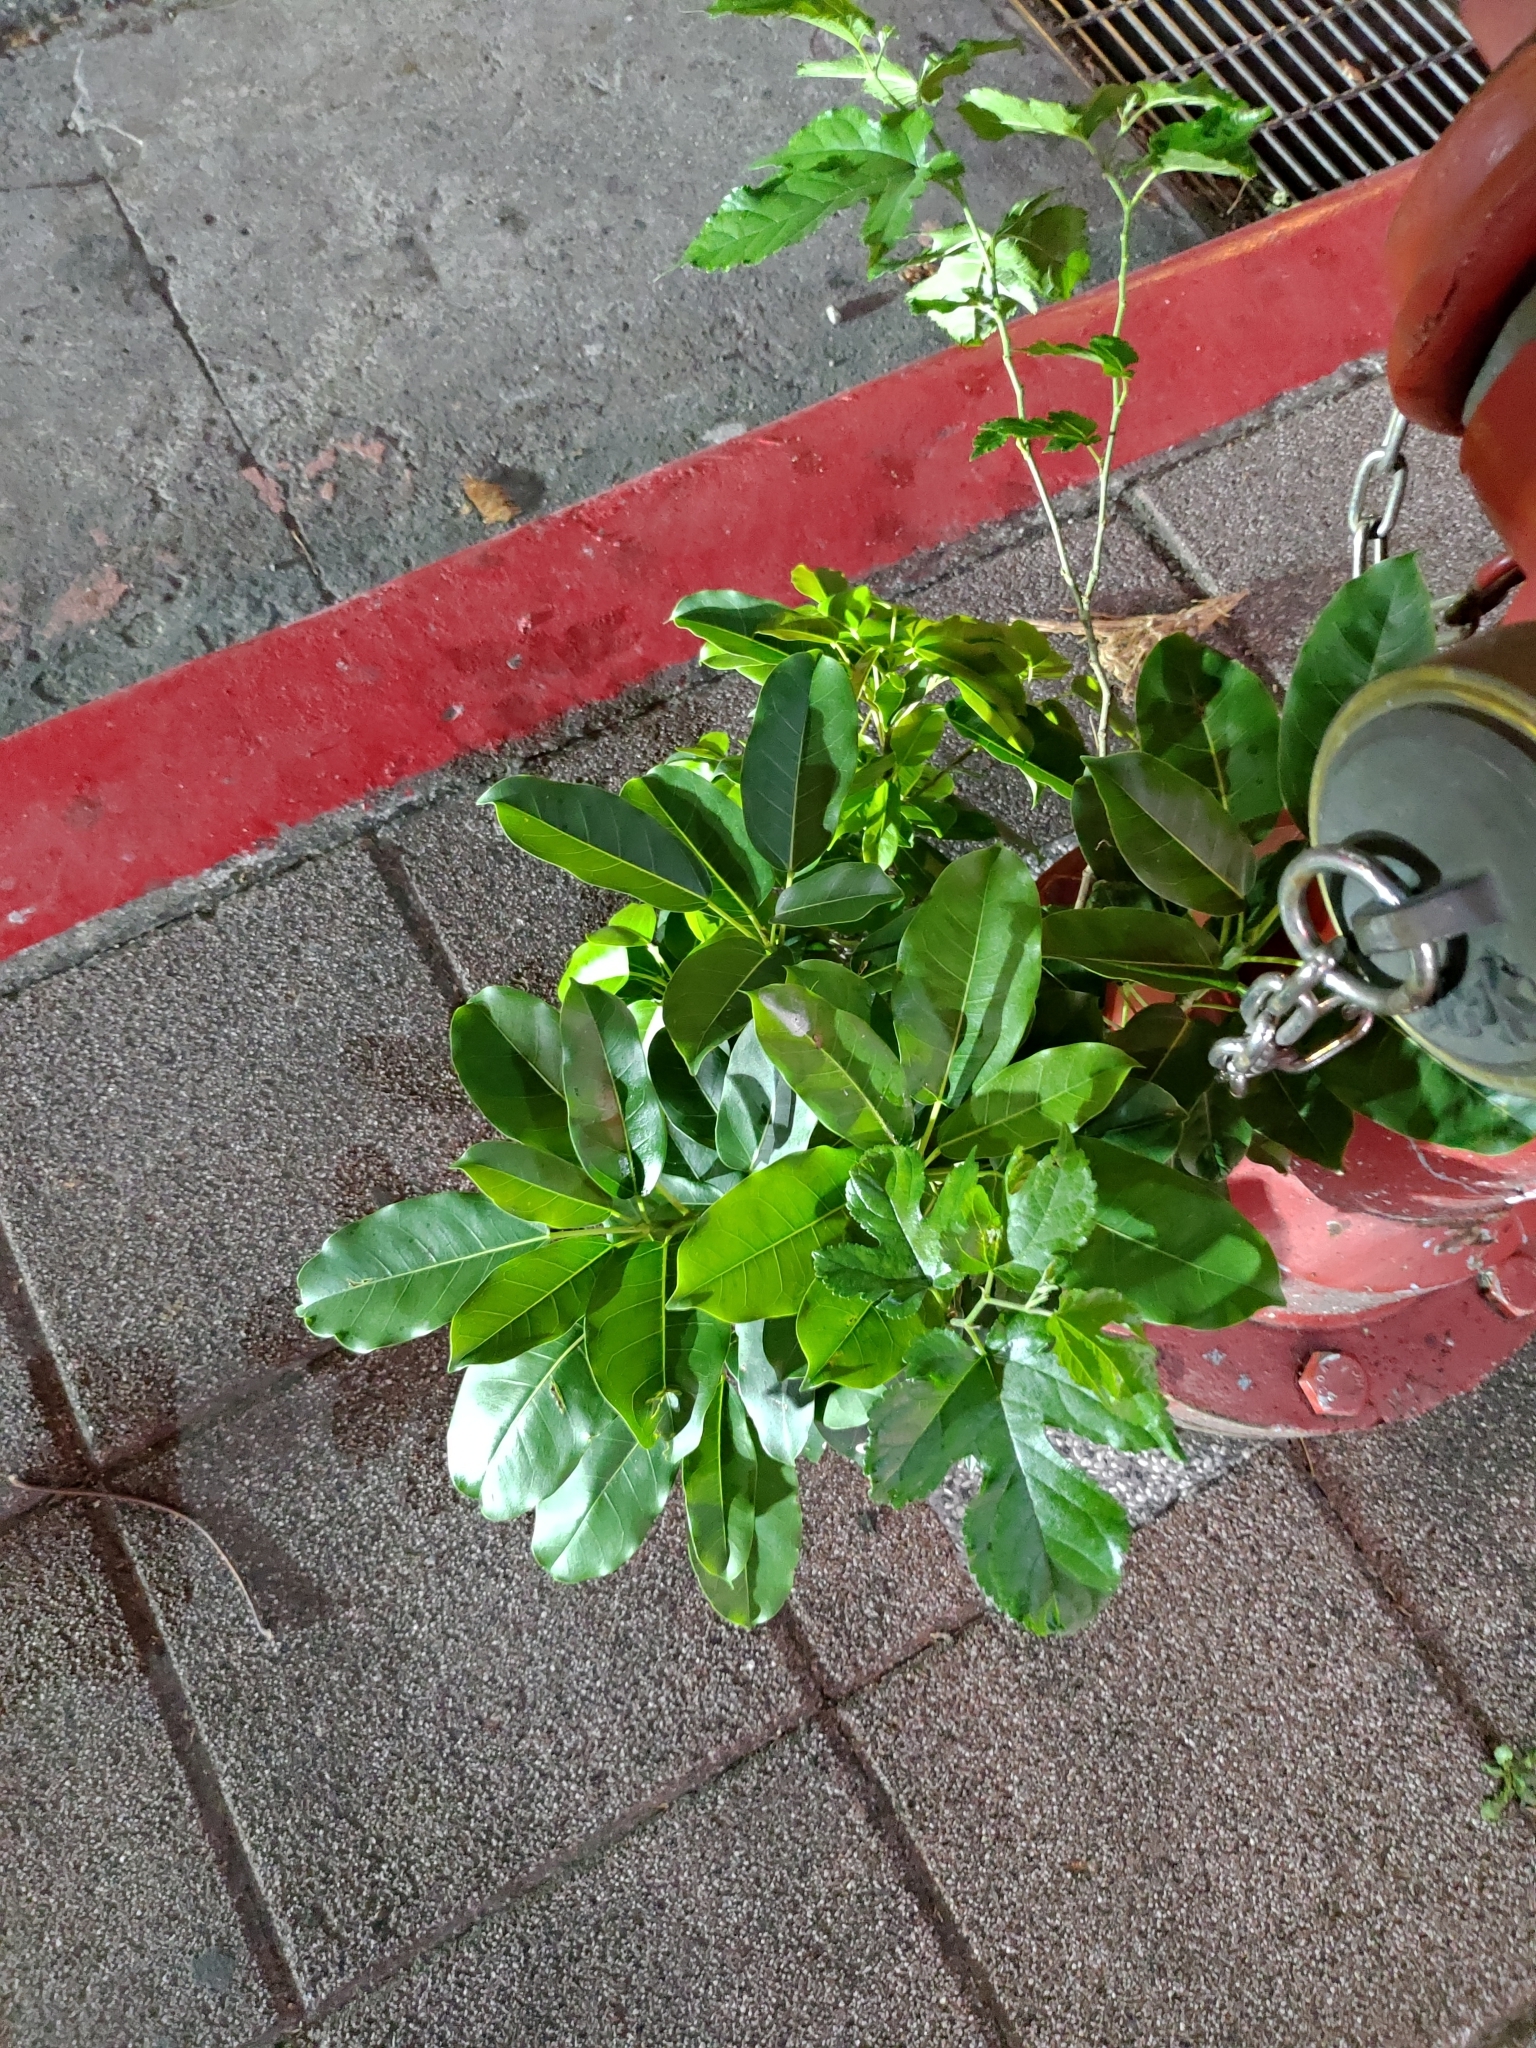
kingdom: Plantae
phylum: Tracheophyta
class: Magnoliopsida
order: Rosales
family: Moraceae
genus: Ficus
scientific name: Ficus subpisocarpa
